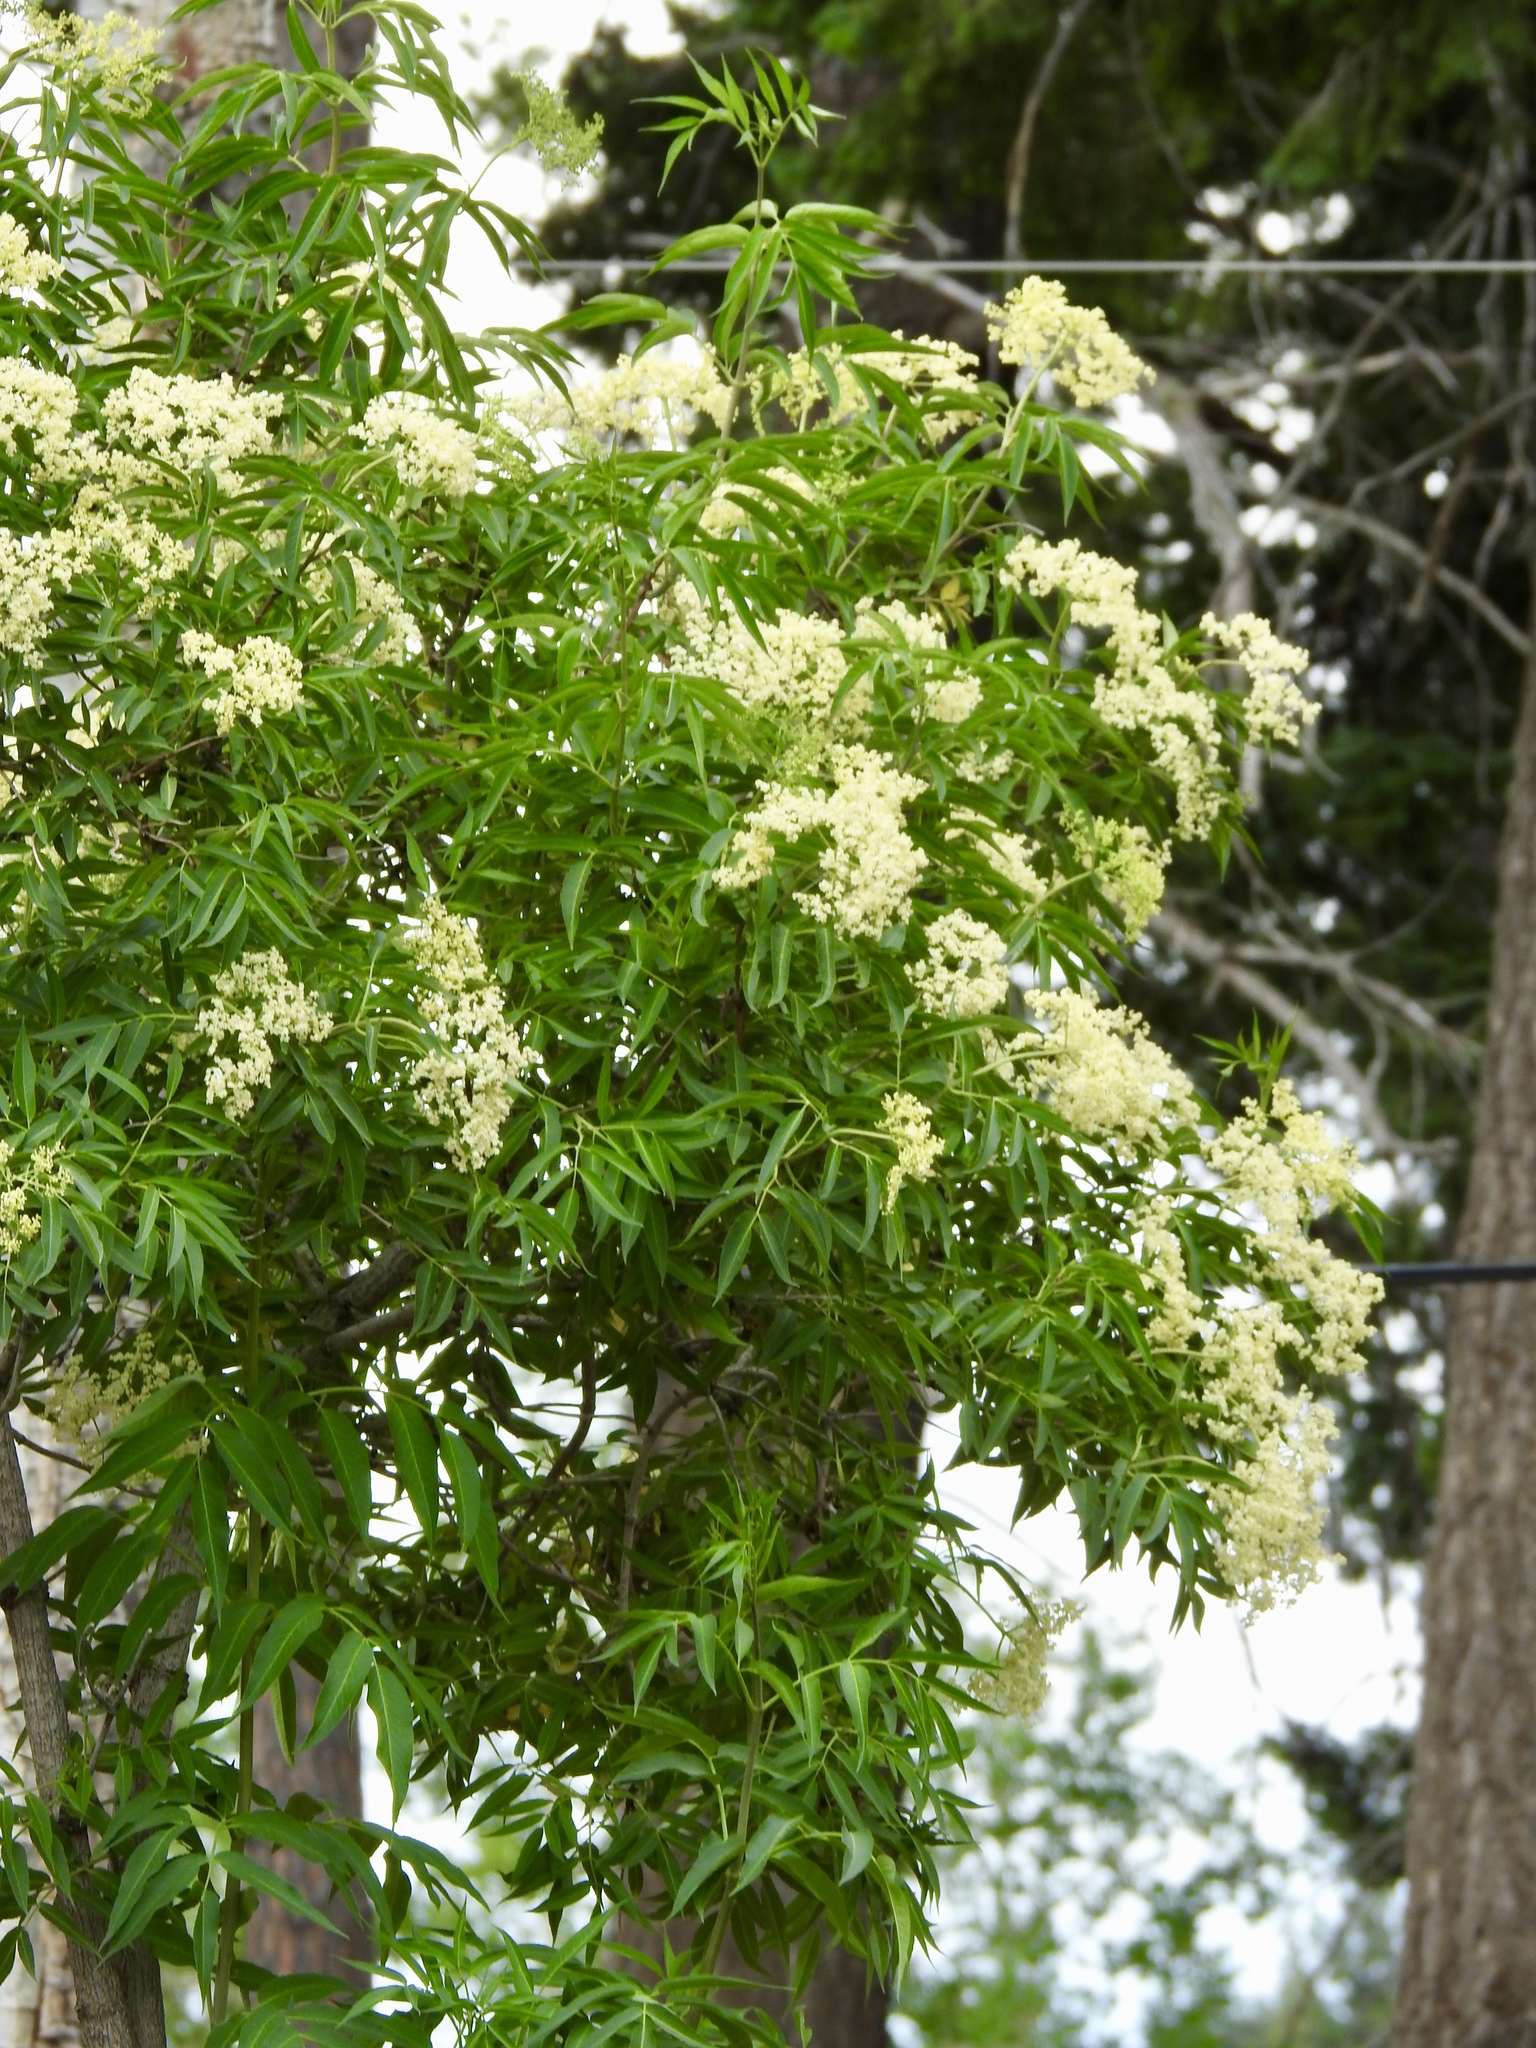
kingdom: Plantae
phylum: Tracheophyta
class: Magnoliopsida
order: Dipsacales
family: Viburnaceae
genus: Sambucus
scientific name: Sambucus cerulea
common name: Blue elder
